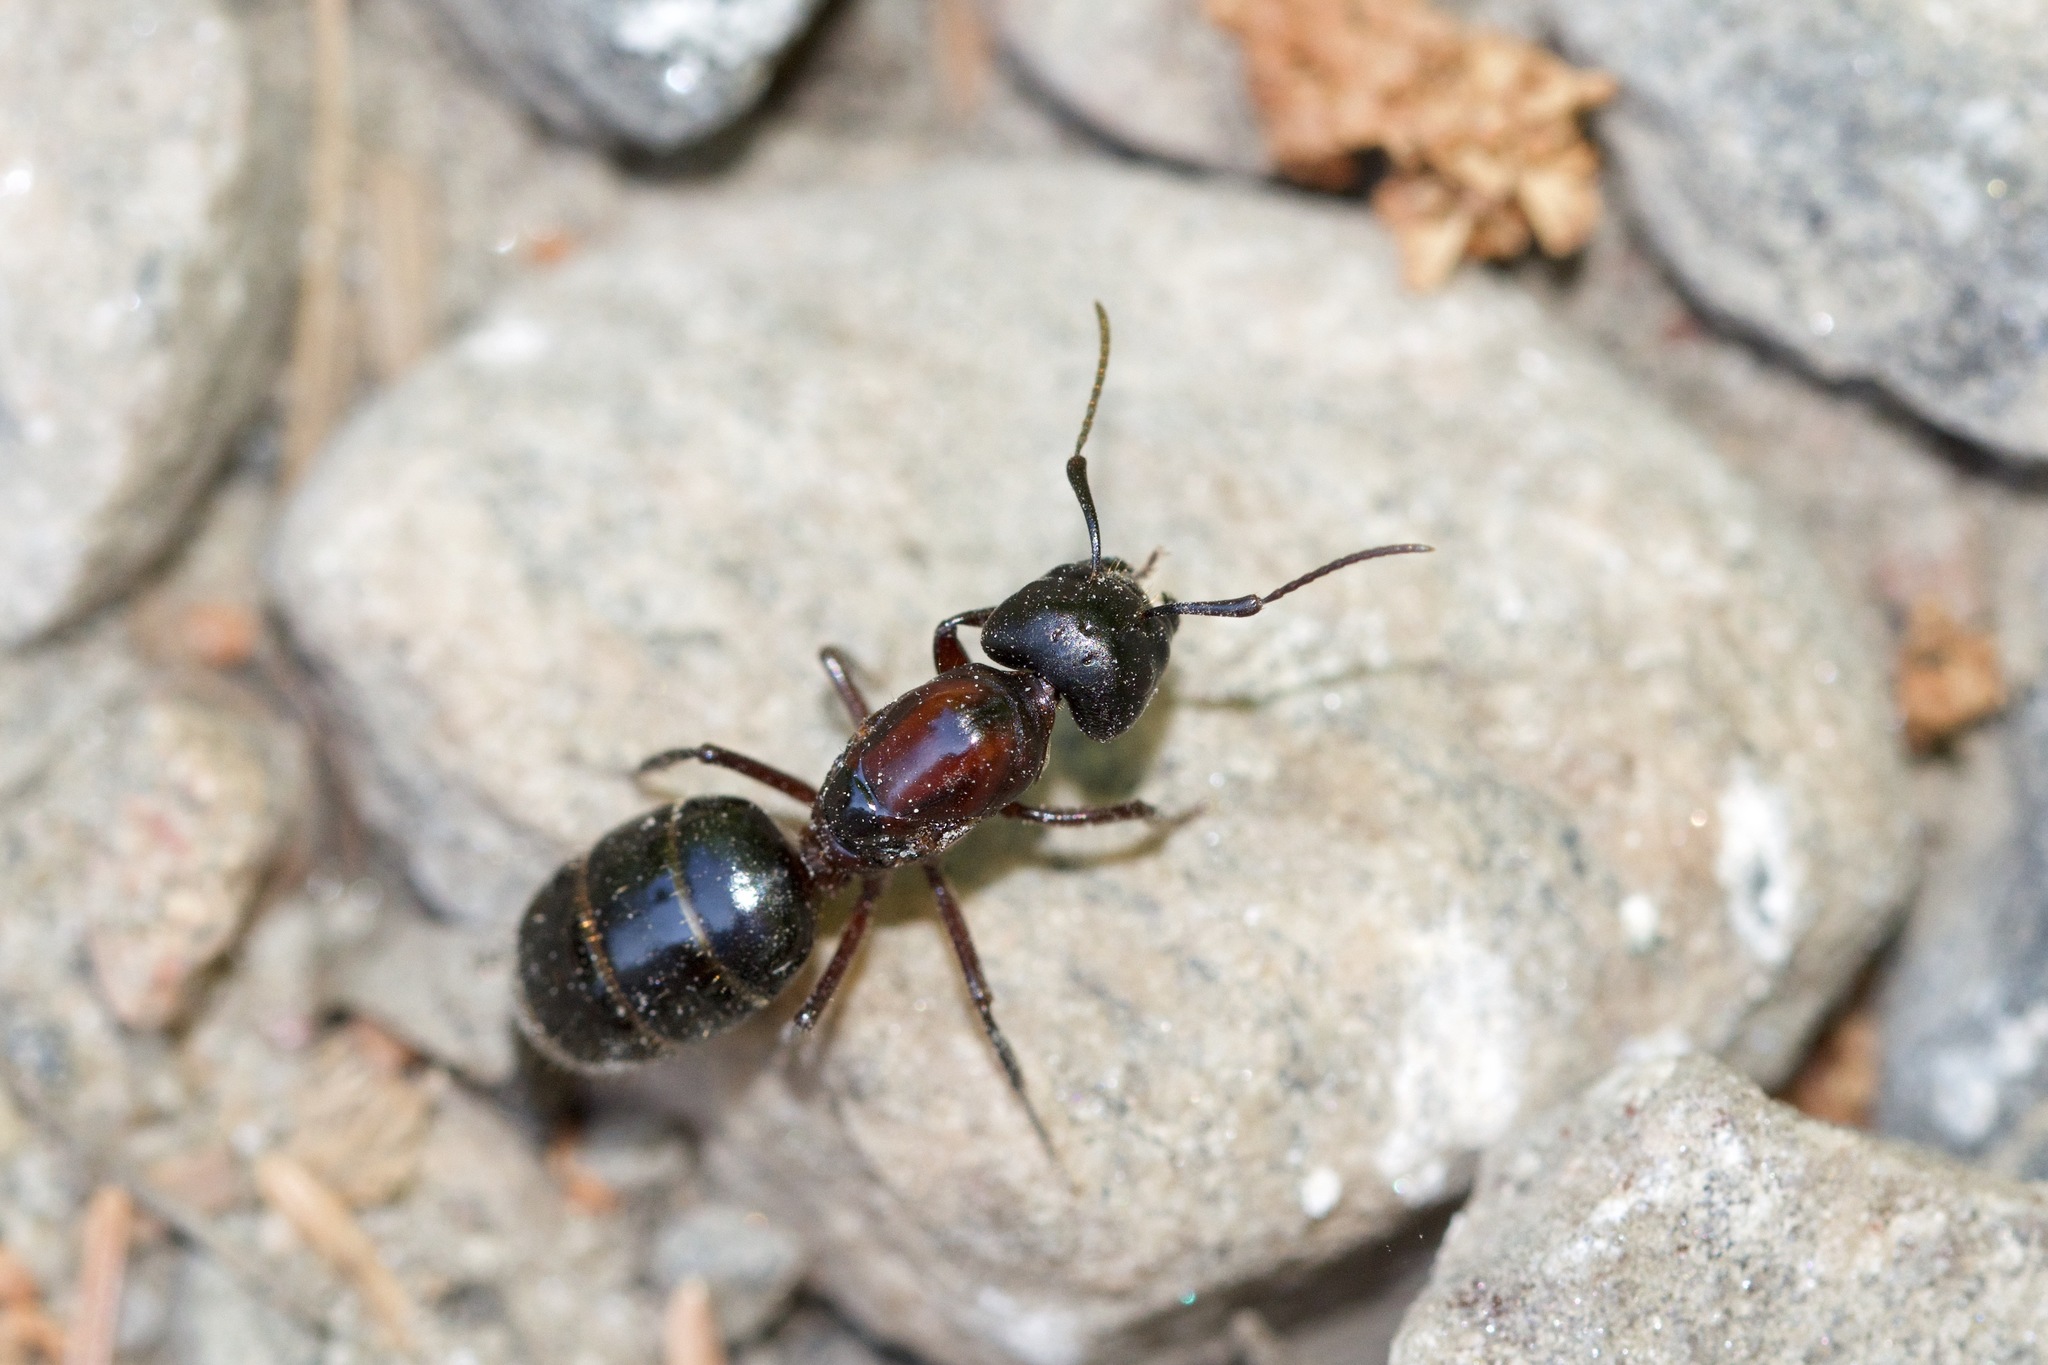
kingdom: Animalia
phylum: Arthropoda
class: Insecta
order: Hymenoptera
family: Formicidae
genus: Camponotus
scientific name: Camponotus novaeboracensis
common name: New york carpenter ant
